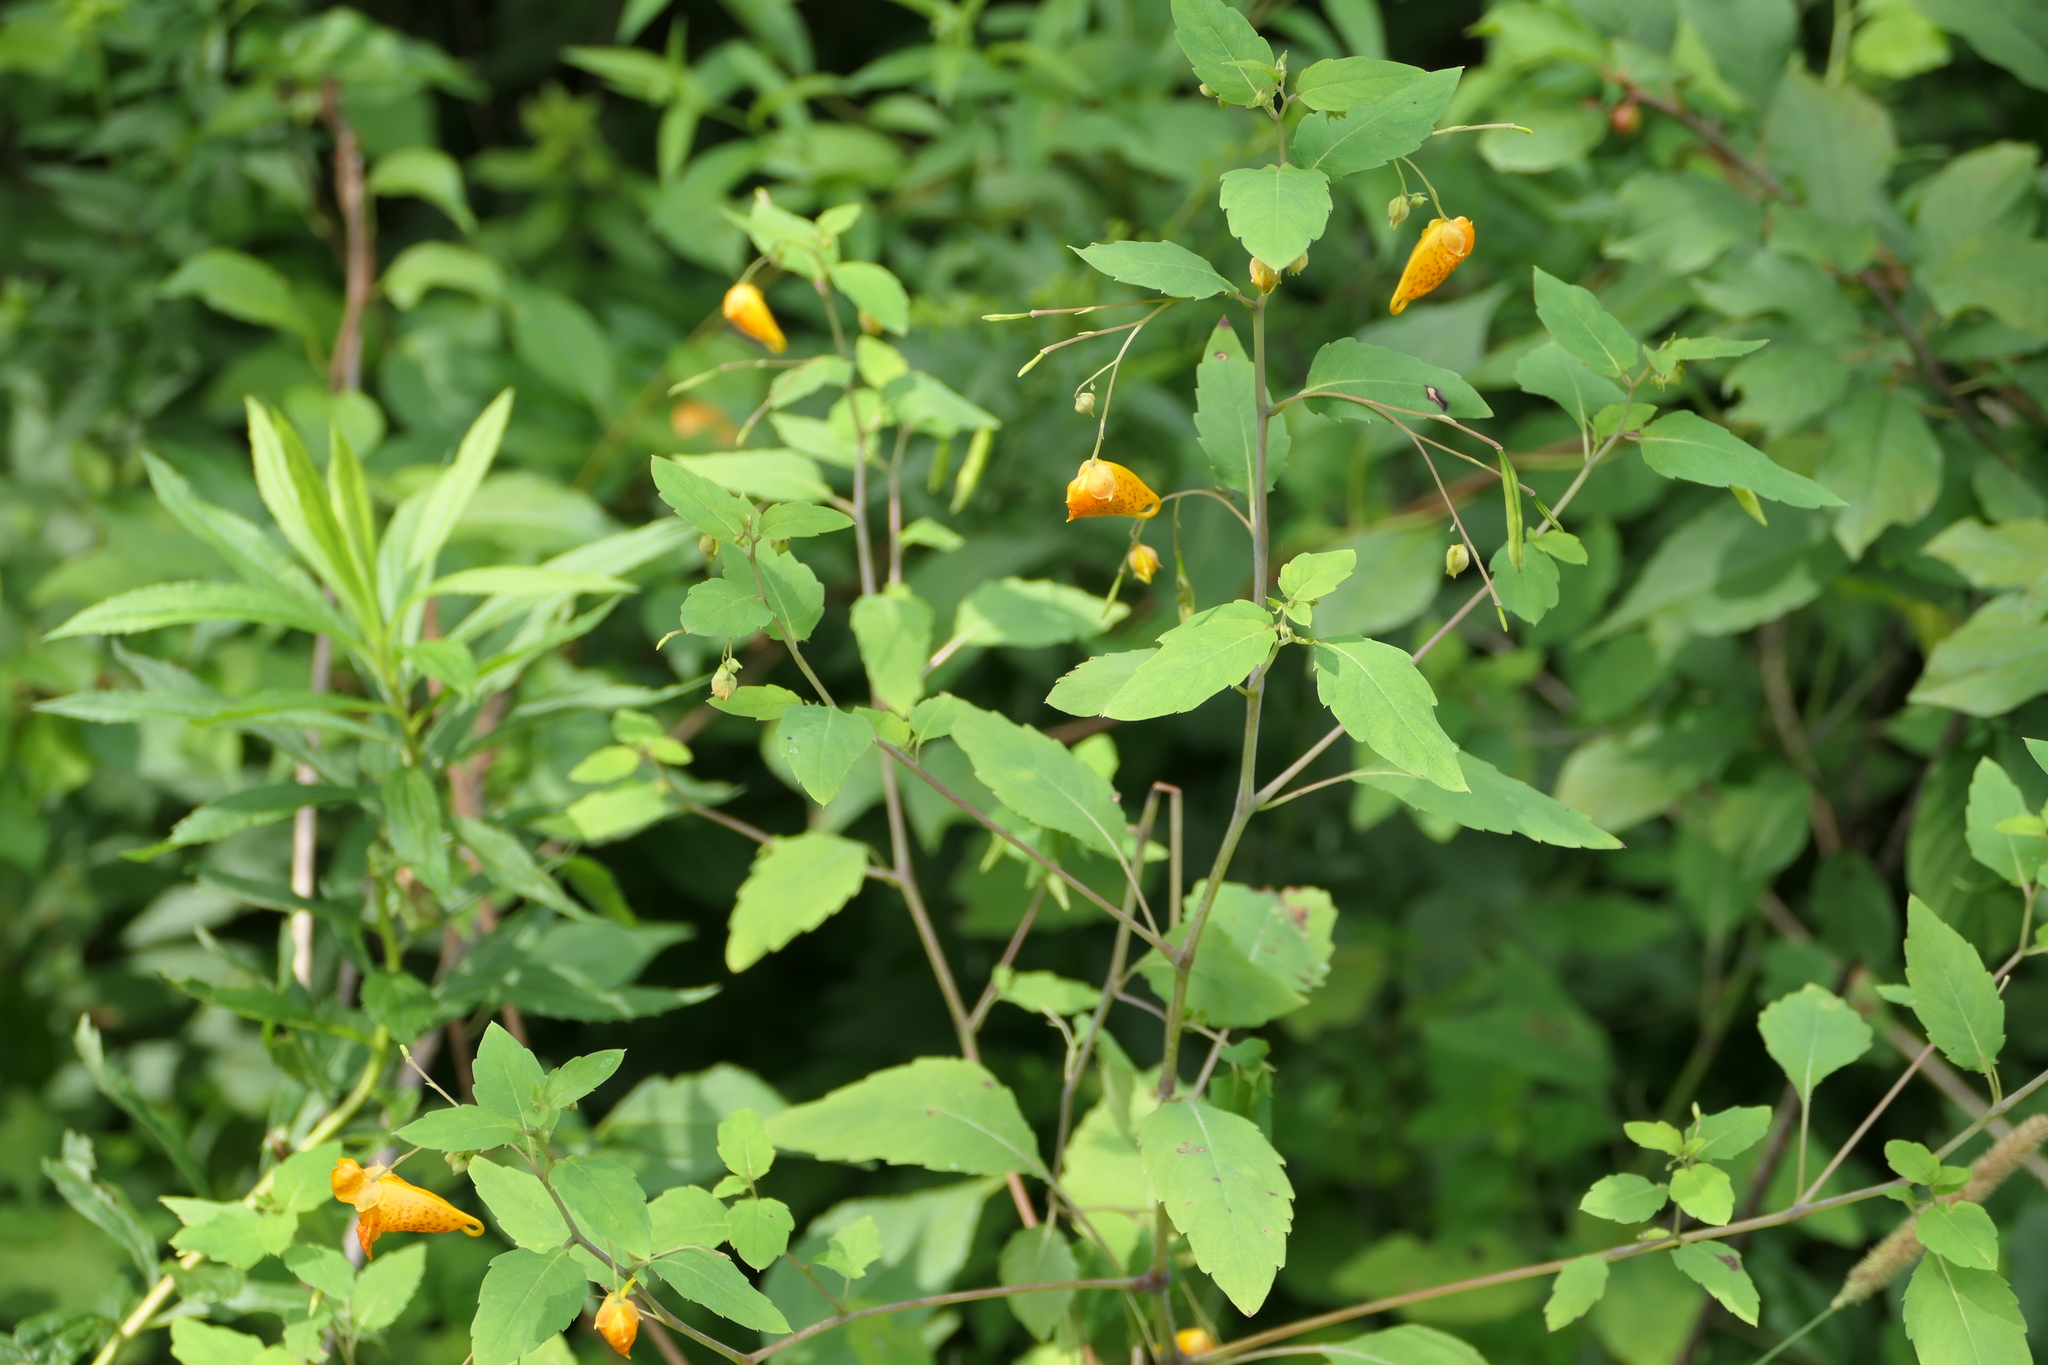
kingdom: Plantae
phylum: Tracheophyta
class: Magnoliopsida
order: Ericales
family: Balsaminaceae
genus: Impatiens
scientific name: Impatiens capensis
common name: Orange balsam
